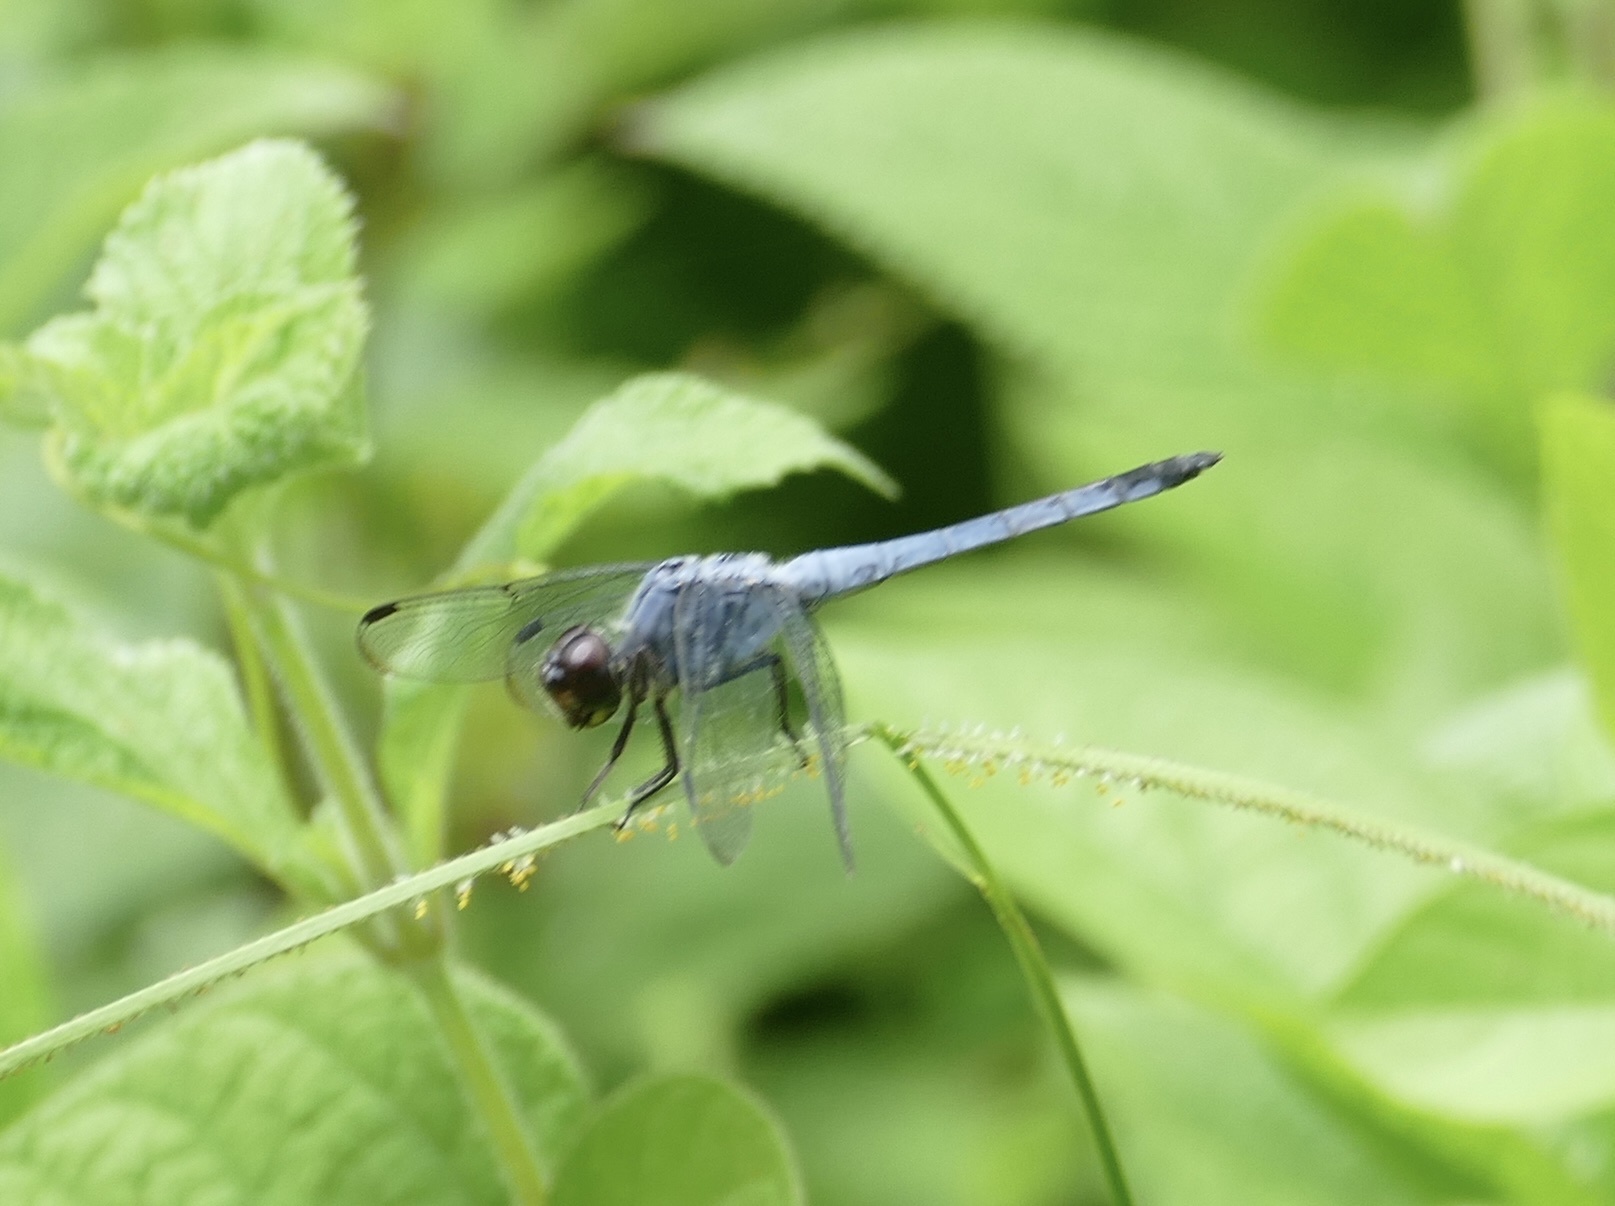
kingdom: Animalia
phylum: Arthropoda
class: Insecta
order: Odonata
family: Libellulidae
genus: Potamarcha
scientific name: Potamarcha congener
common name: Blue chaser
